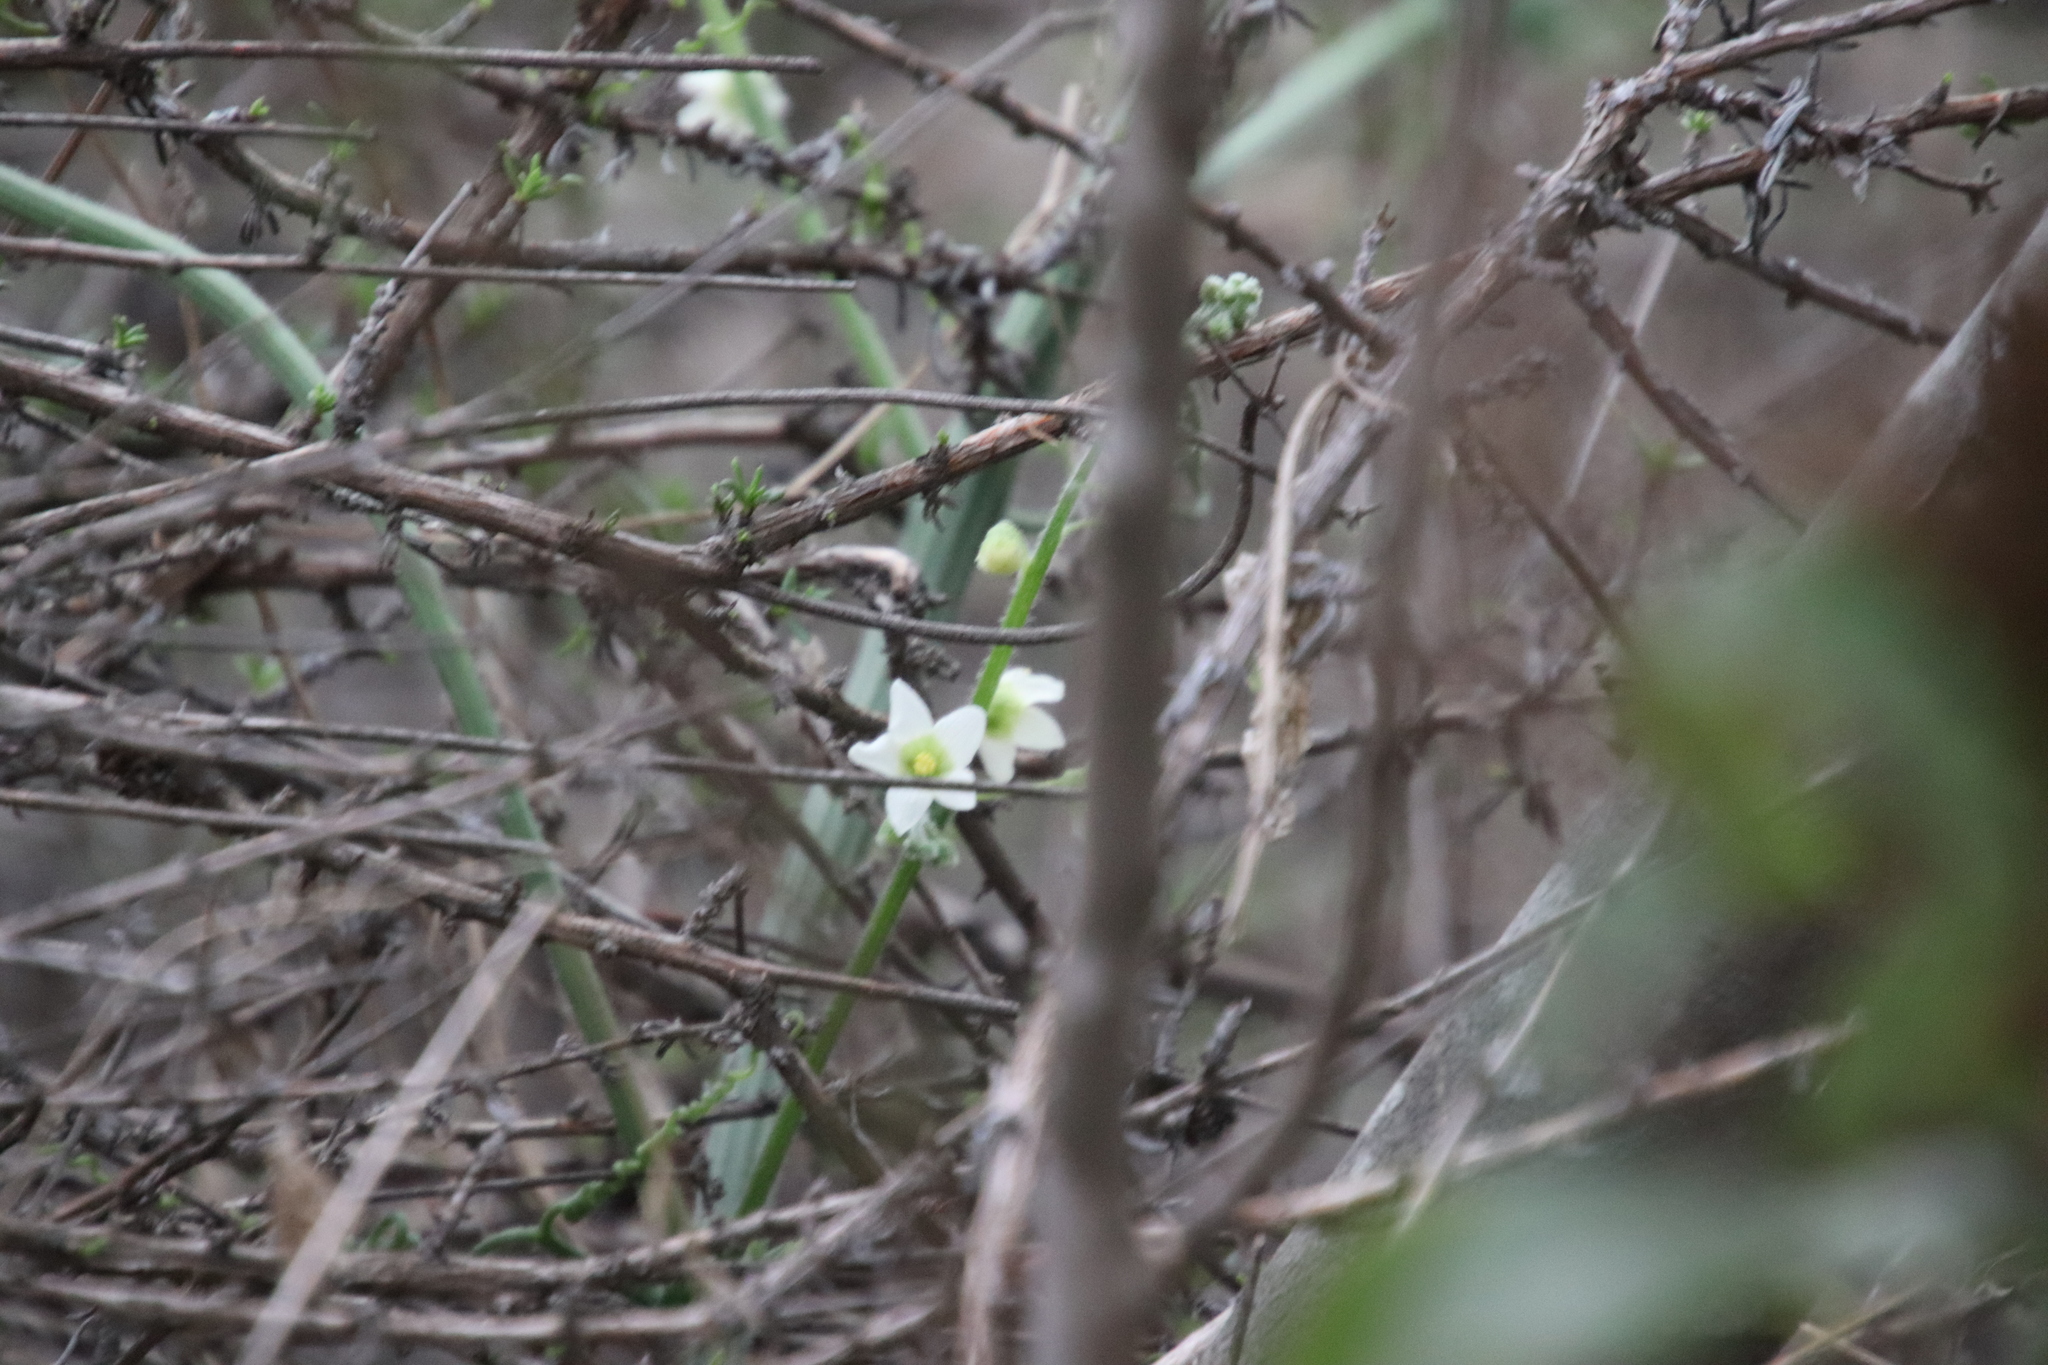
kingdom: Plantae
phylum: Tracheophyta
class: Magnoliopsida
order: Cucurbitales
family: Cucurbitaceae
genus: Marah
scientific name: Marah macrocarpa
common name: Cucamonga manroot
